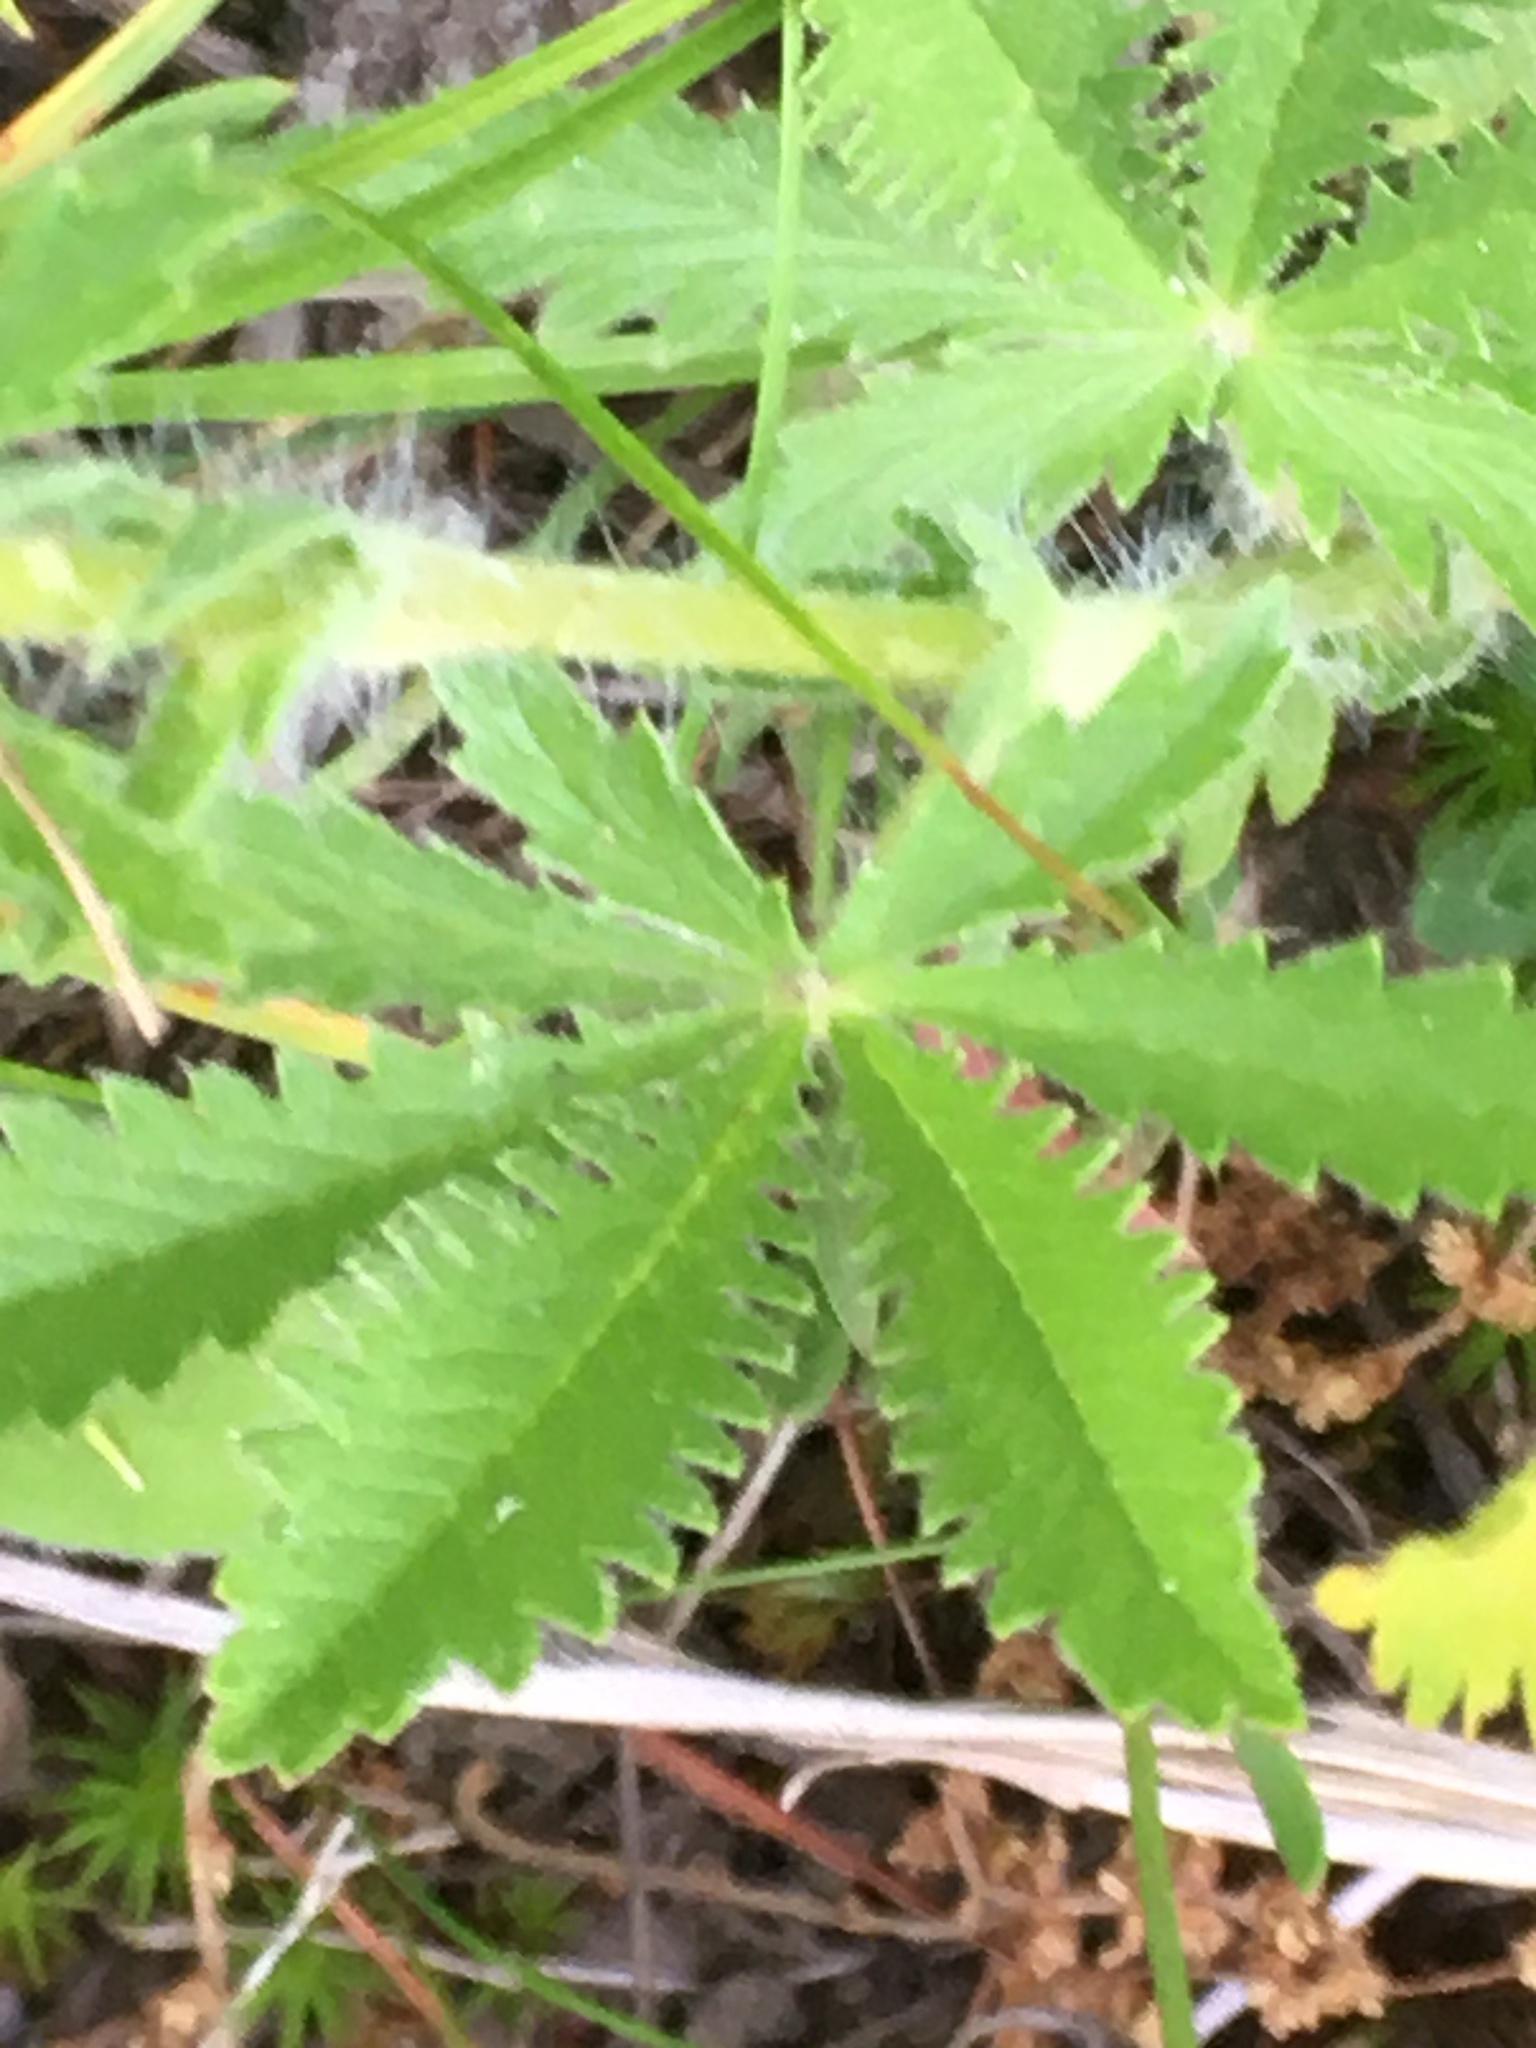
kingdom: Plantae
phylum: Tracheophyta
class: Magnoliopsida
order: Rosales
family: Rosaceae
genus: Potentilla
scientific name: Potentilla recta
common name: Sulphur cinquefoil
